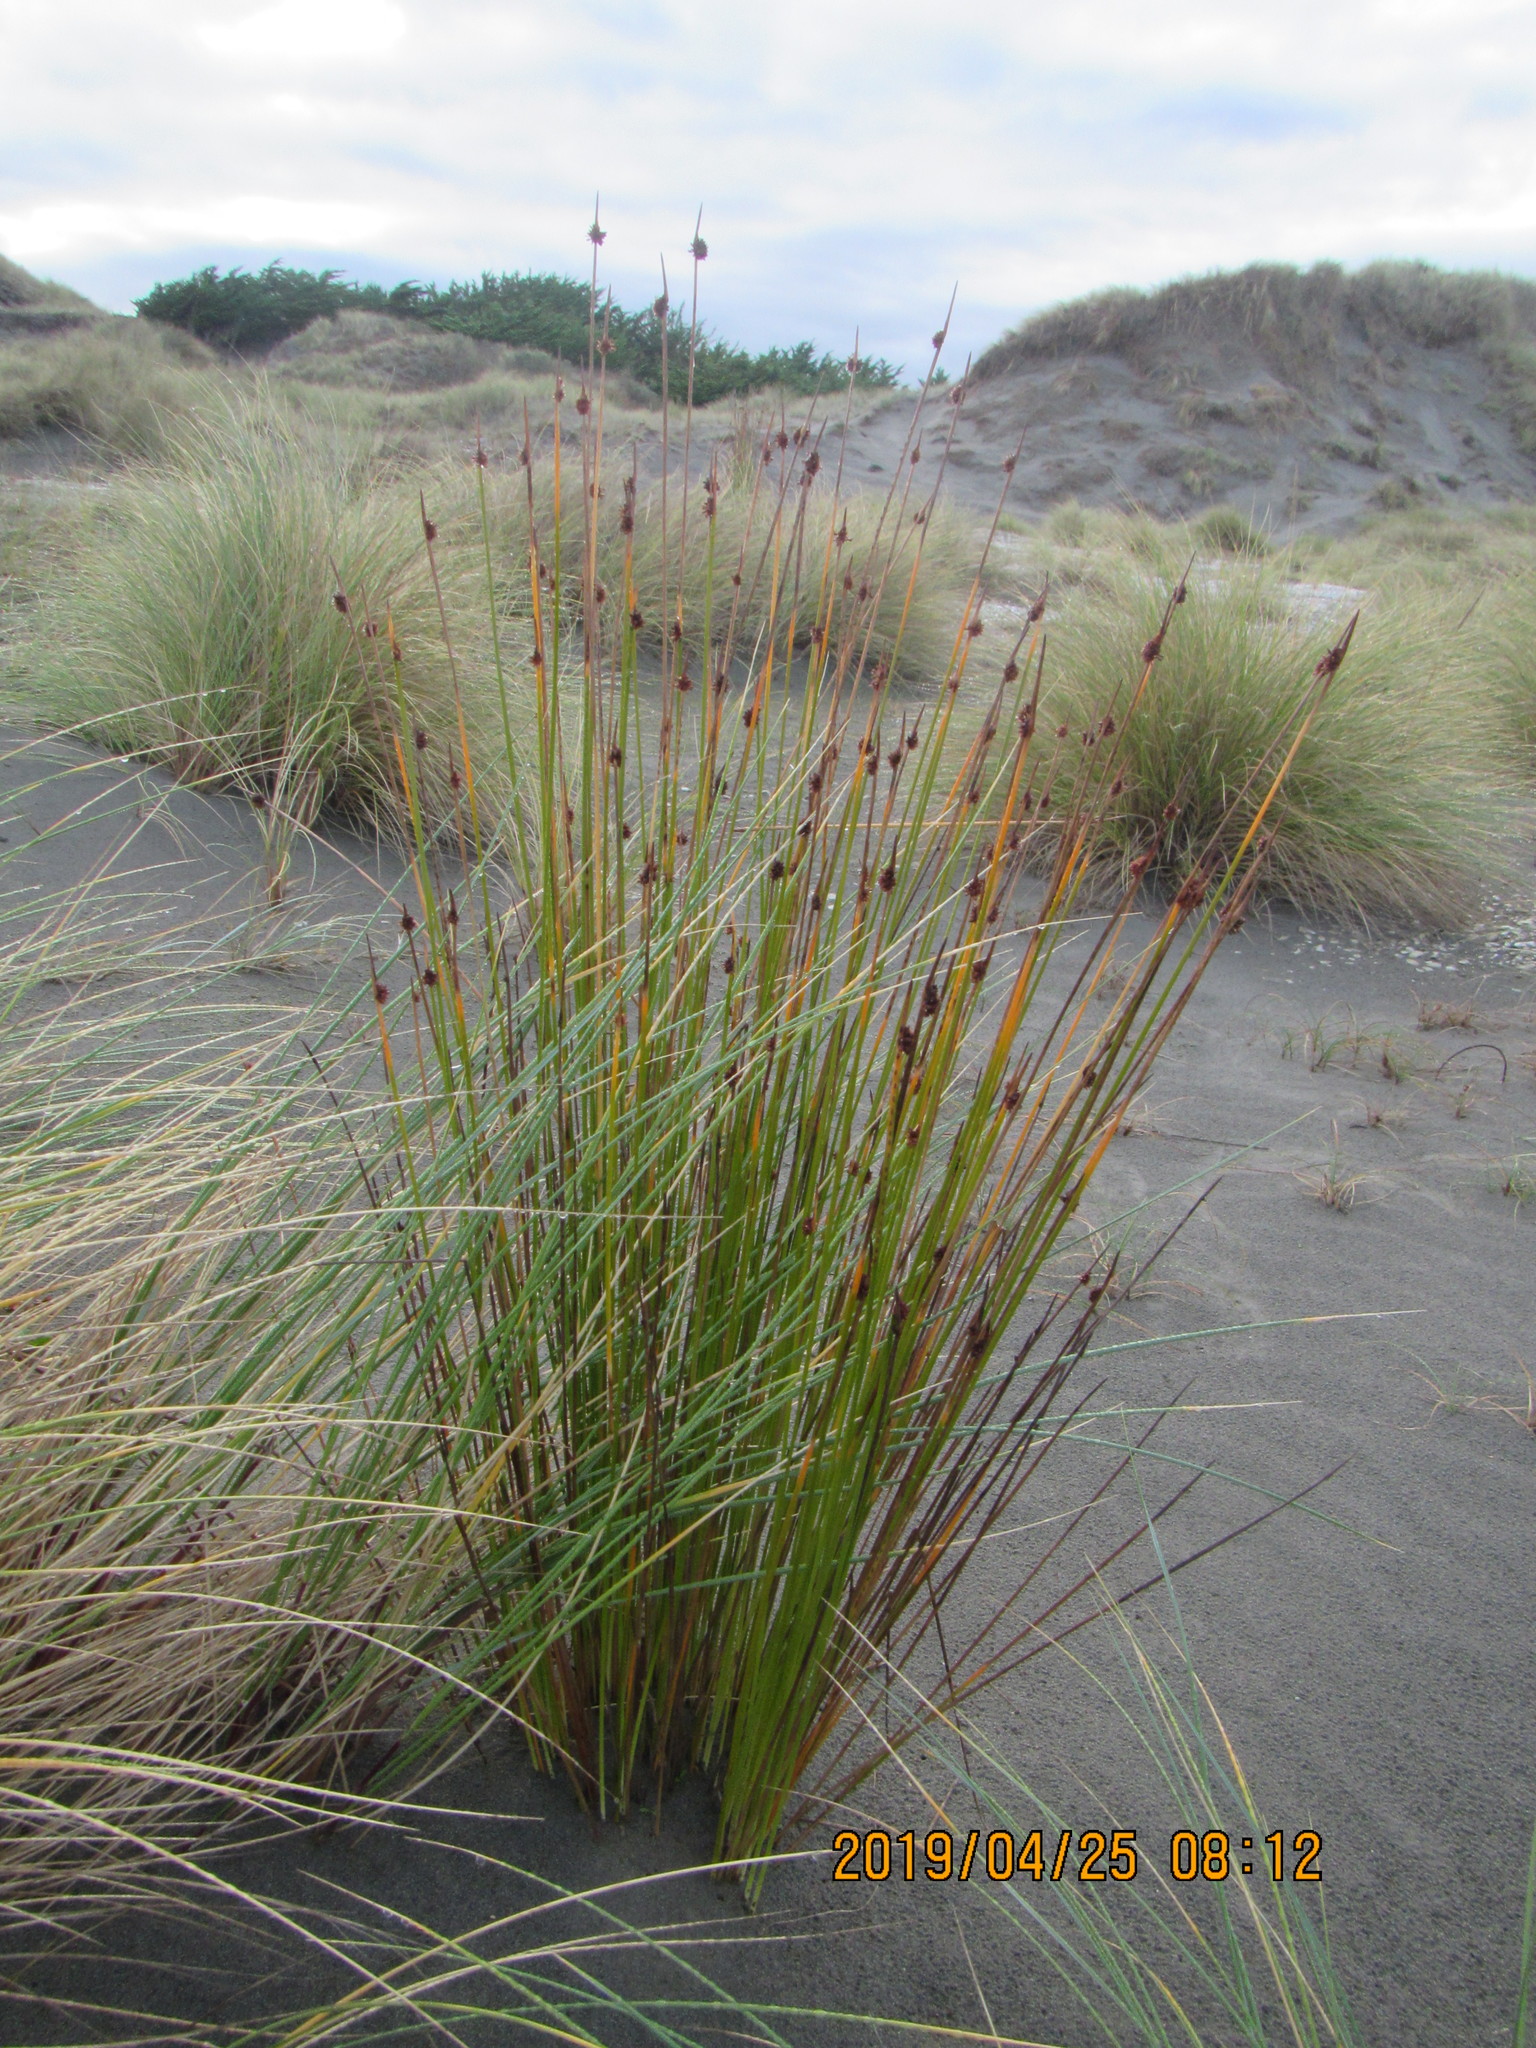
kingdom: Plantae
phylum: Tracheophyta
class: Liliopsida
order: Poales
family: Cyperaceae
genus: Ficinia
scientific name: Ficinia nodosa
